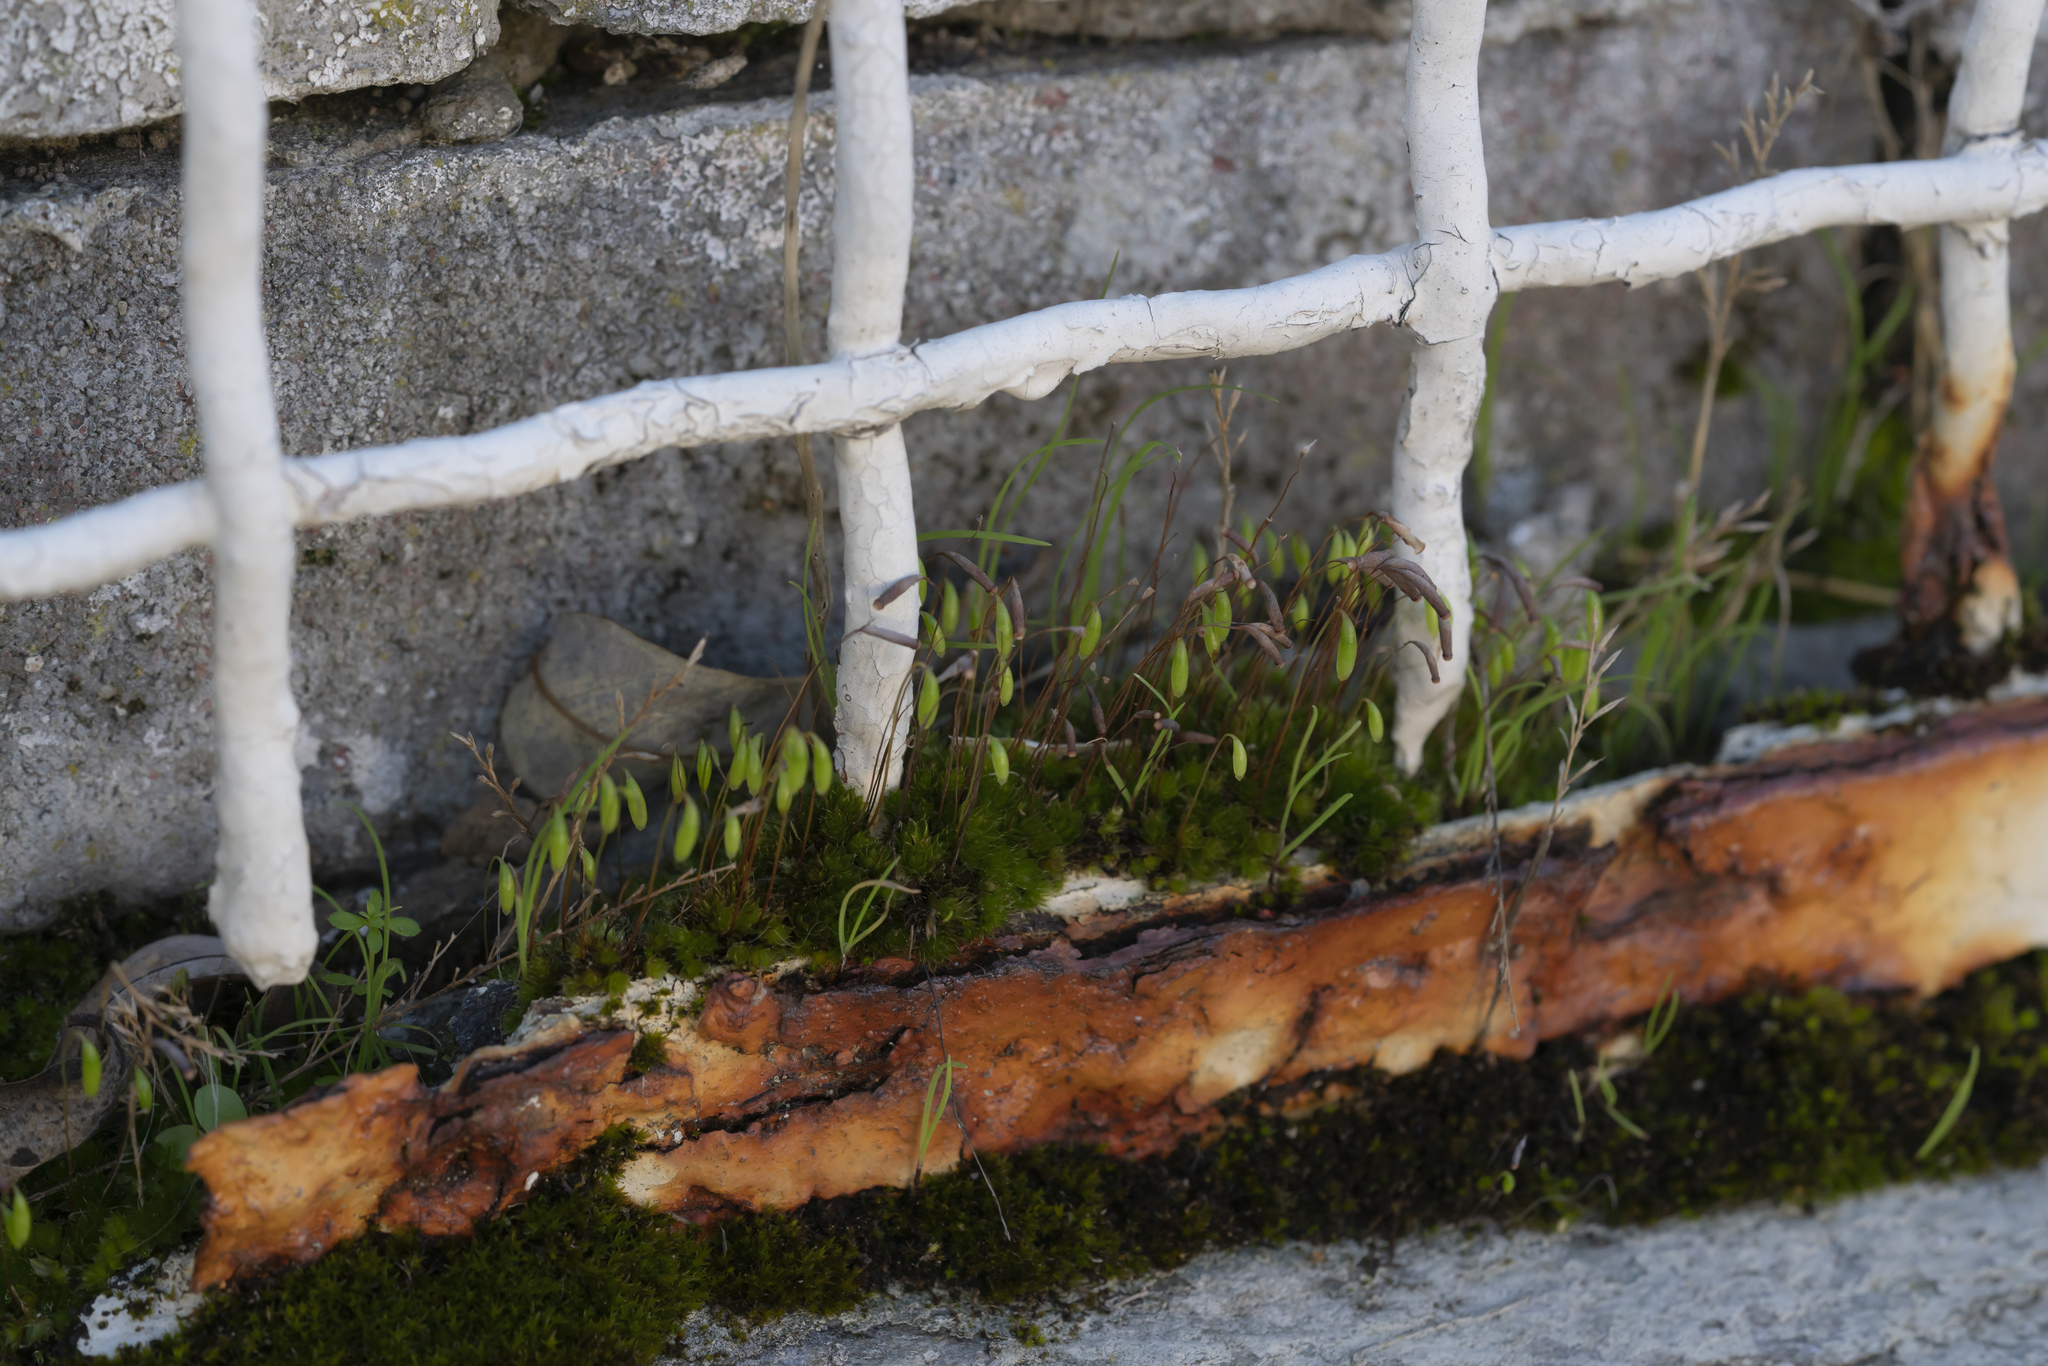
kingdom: Plantae
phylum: Bryophyta
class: Bryopsida
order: Bryales
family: Bryaceae
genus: Rosulabryum
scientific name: Rosulabryum capillare
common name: Capillary thread-moss
